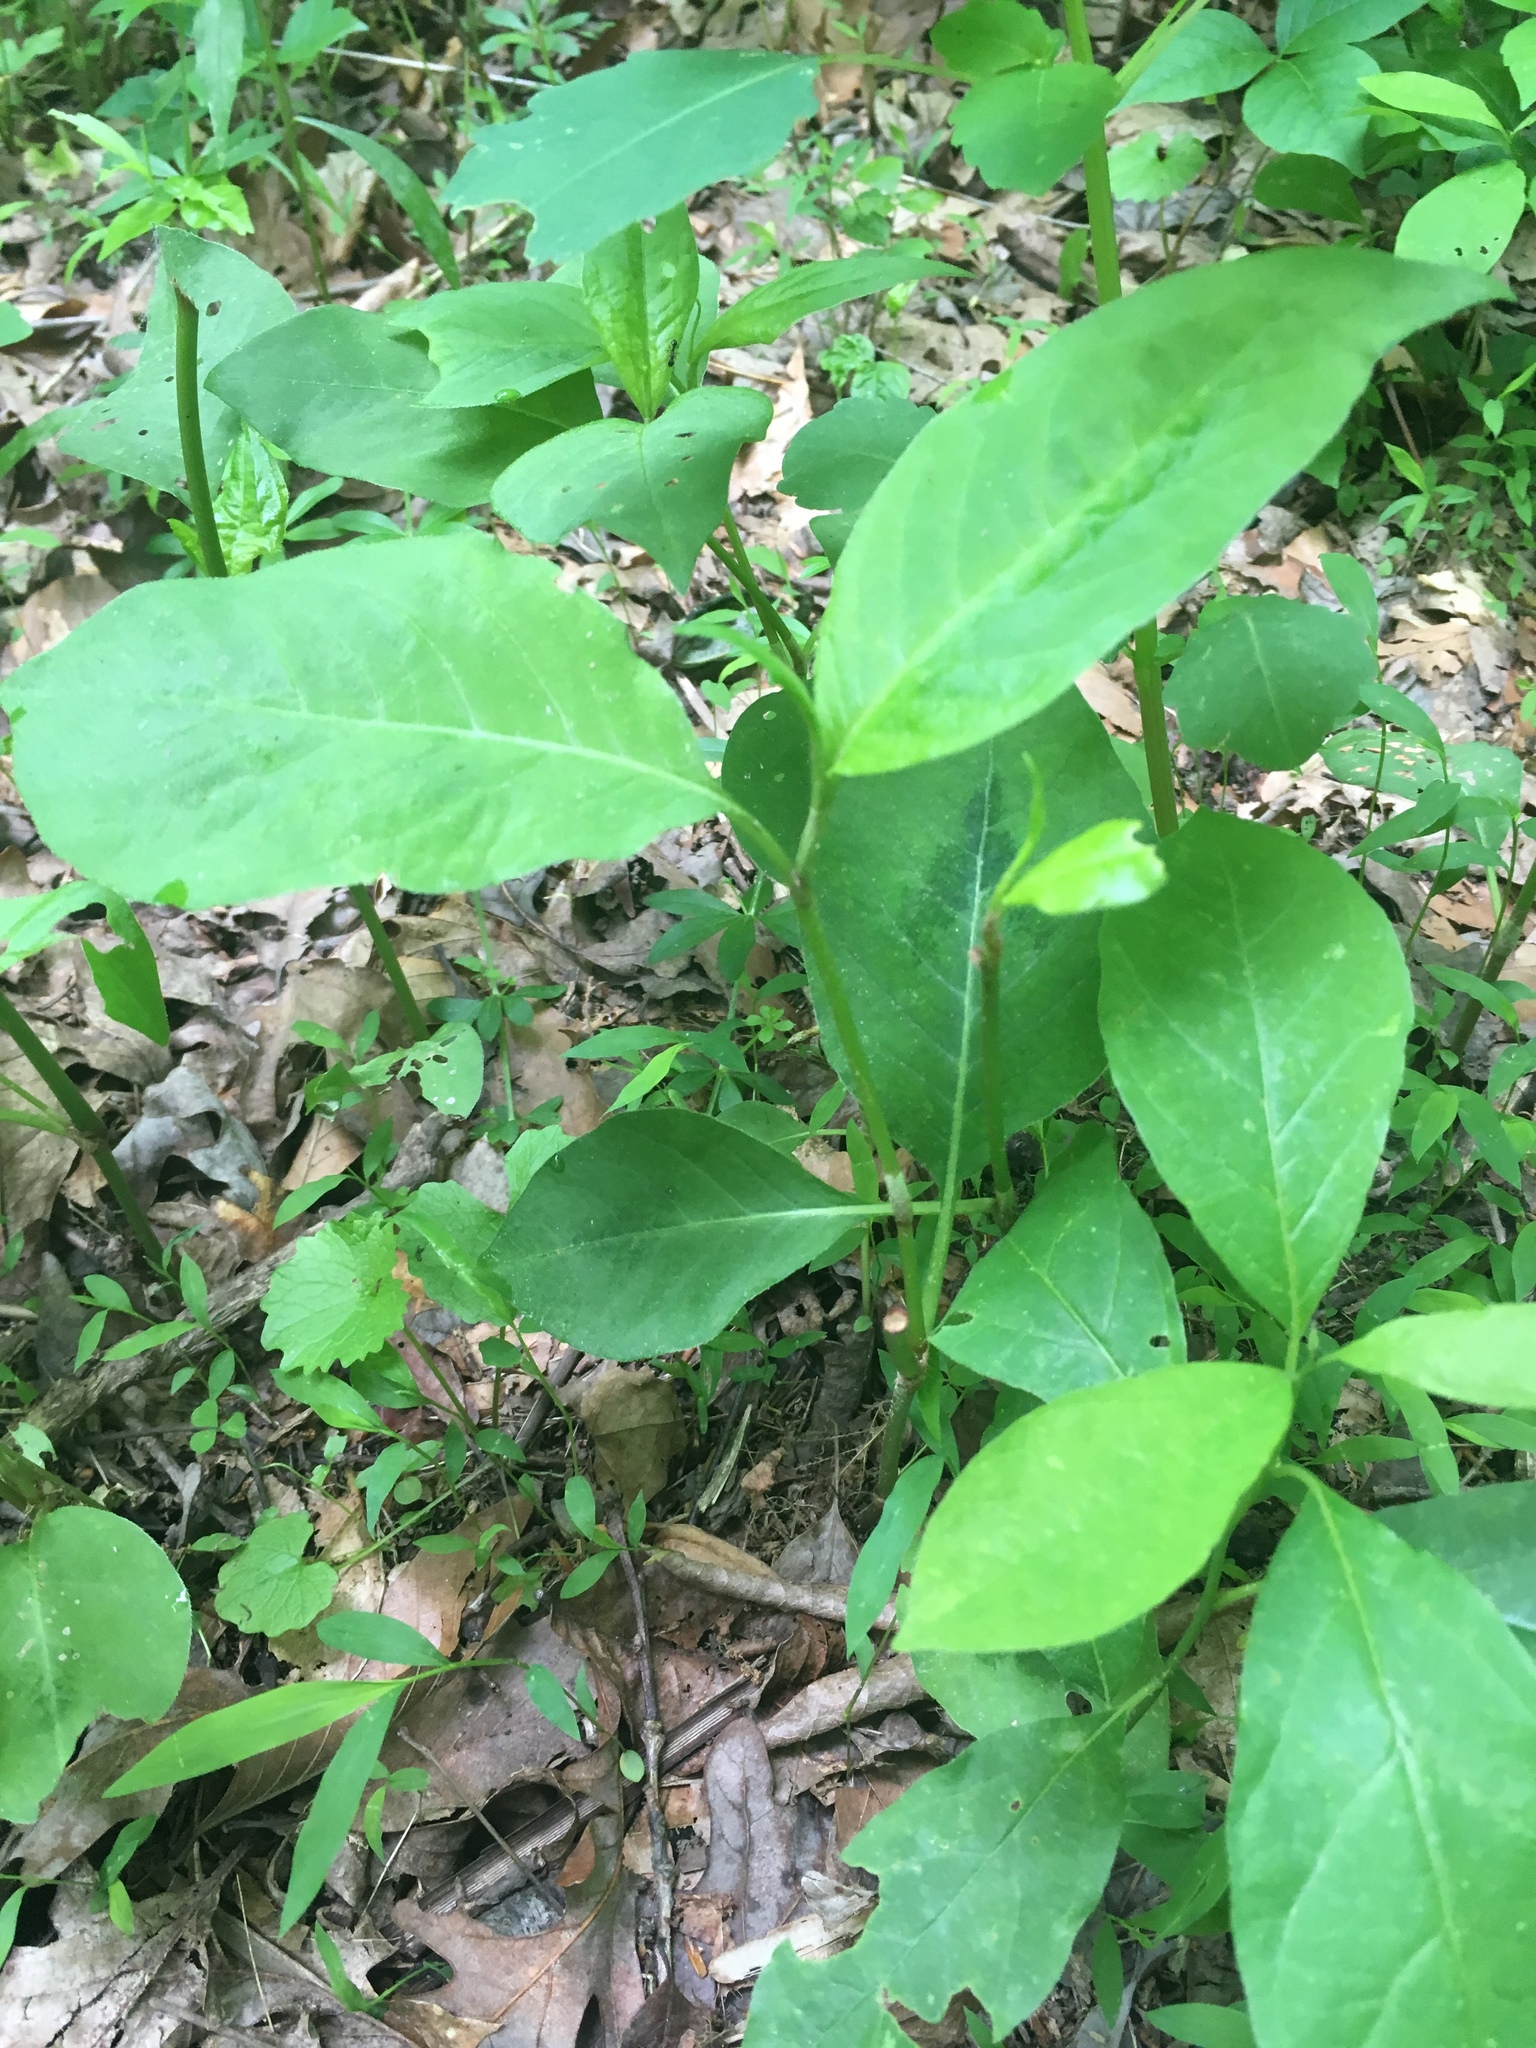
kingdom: Plantae
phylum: Tracheophyta
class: Magnoliopsida
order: Caryophyllales
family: Polygonaceae
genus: Persicaria
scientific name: Persicaria virginiana
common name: Jumpseed
